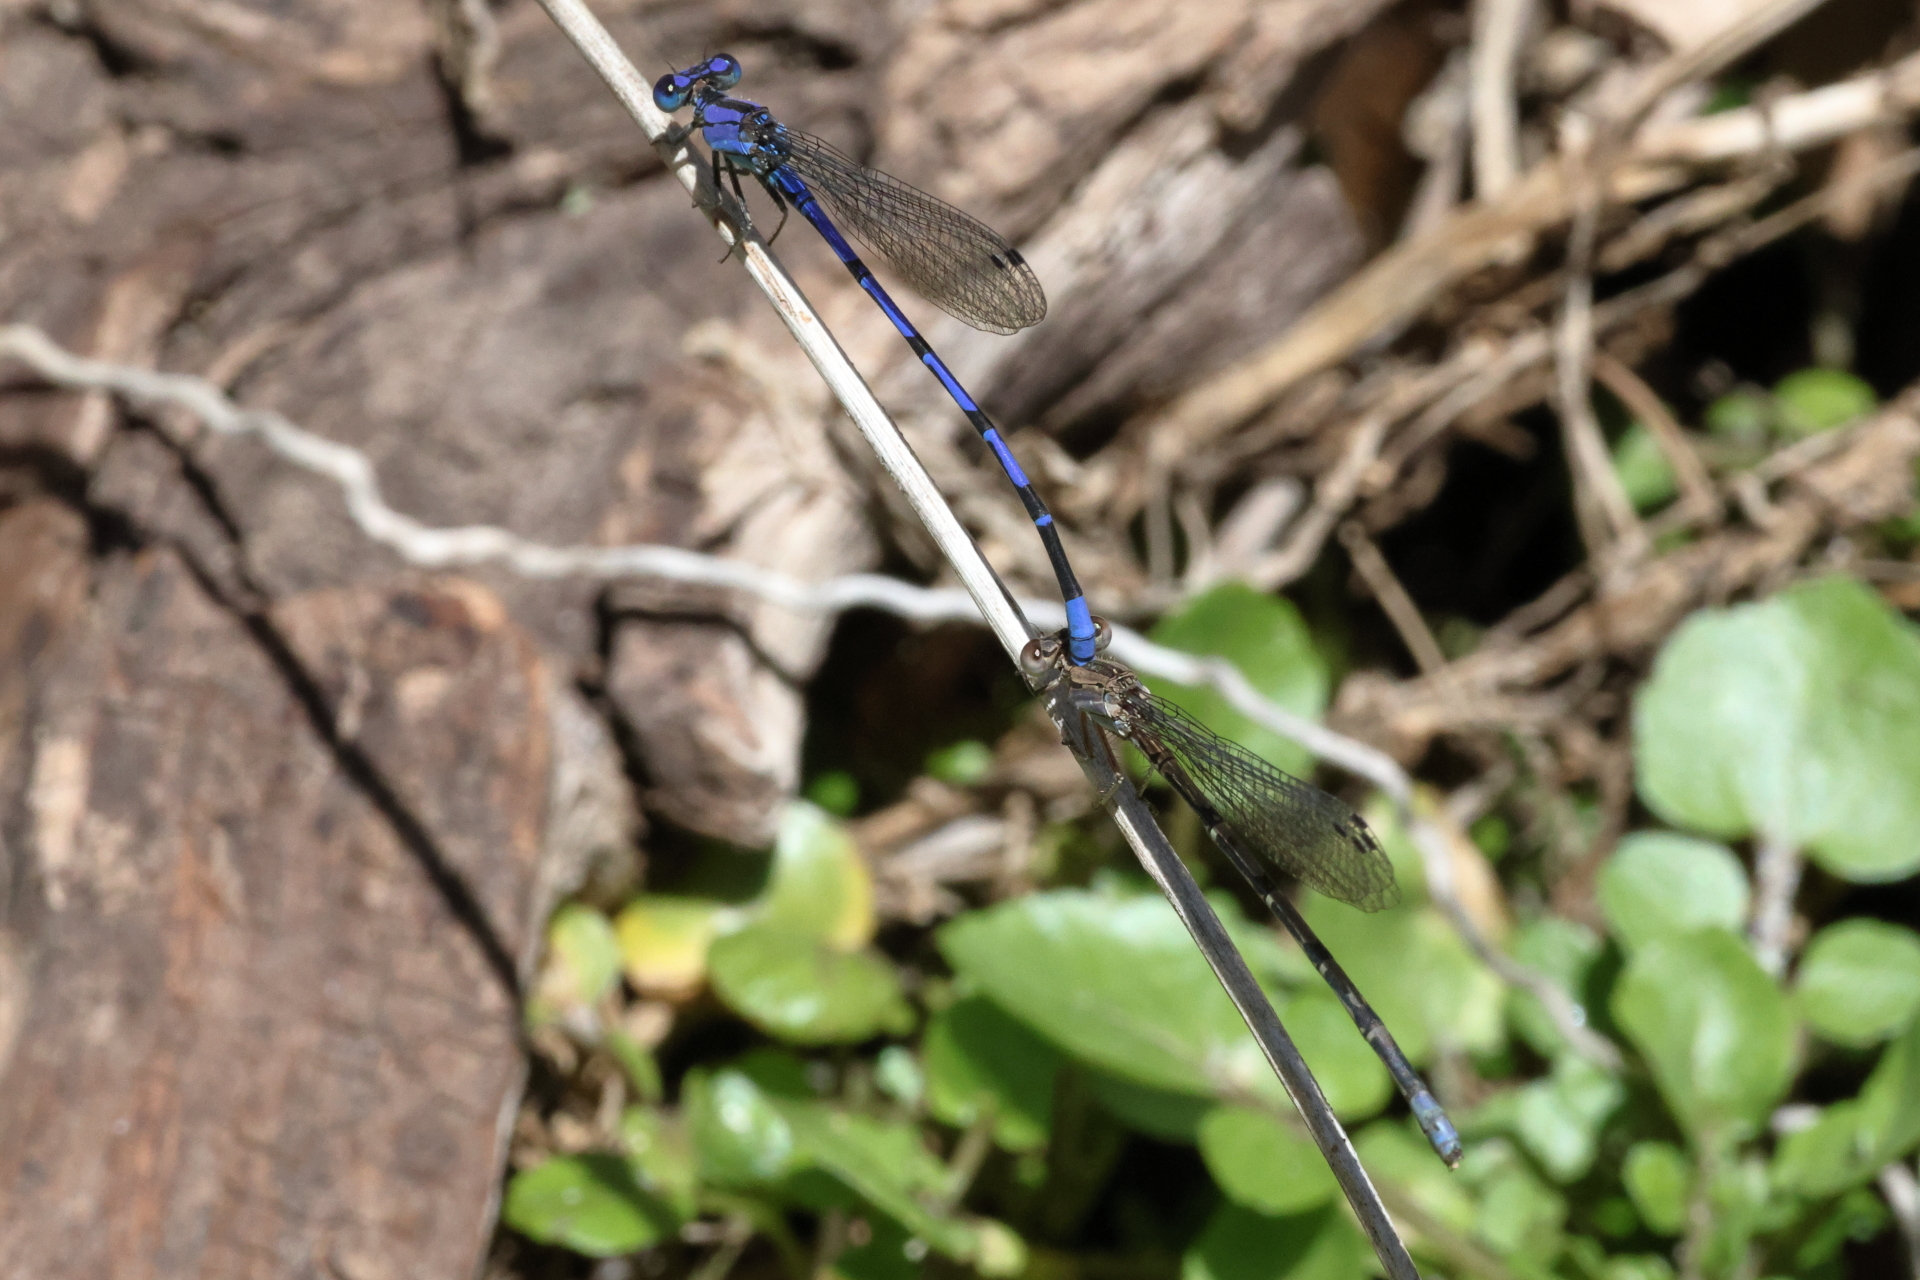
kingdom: Animalia
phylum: Arthropoda
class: Insecta
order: Odonata
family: Coenagrionidae
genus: Argia
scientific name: Argia extranea
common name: Spine-tipped dancer
